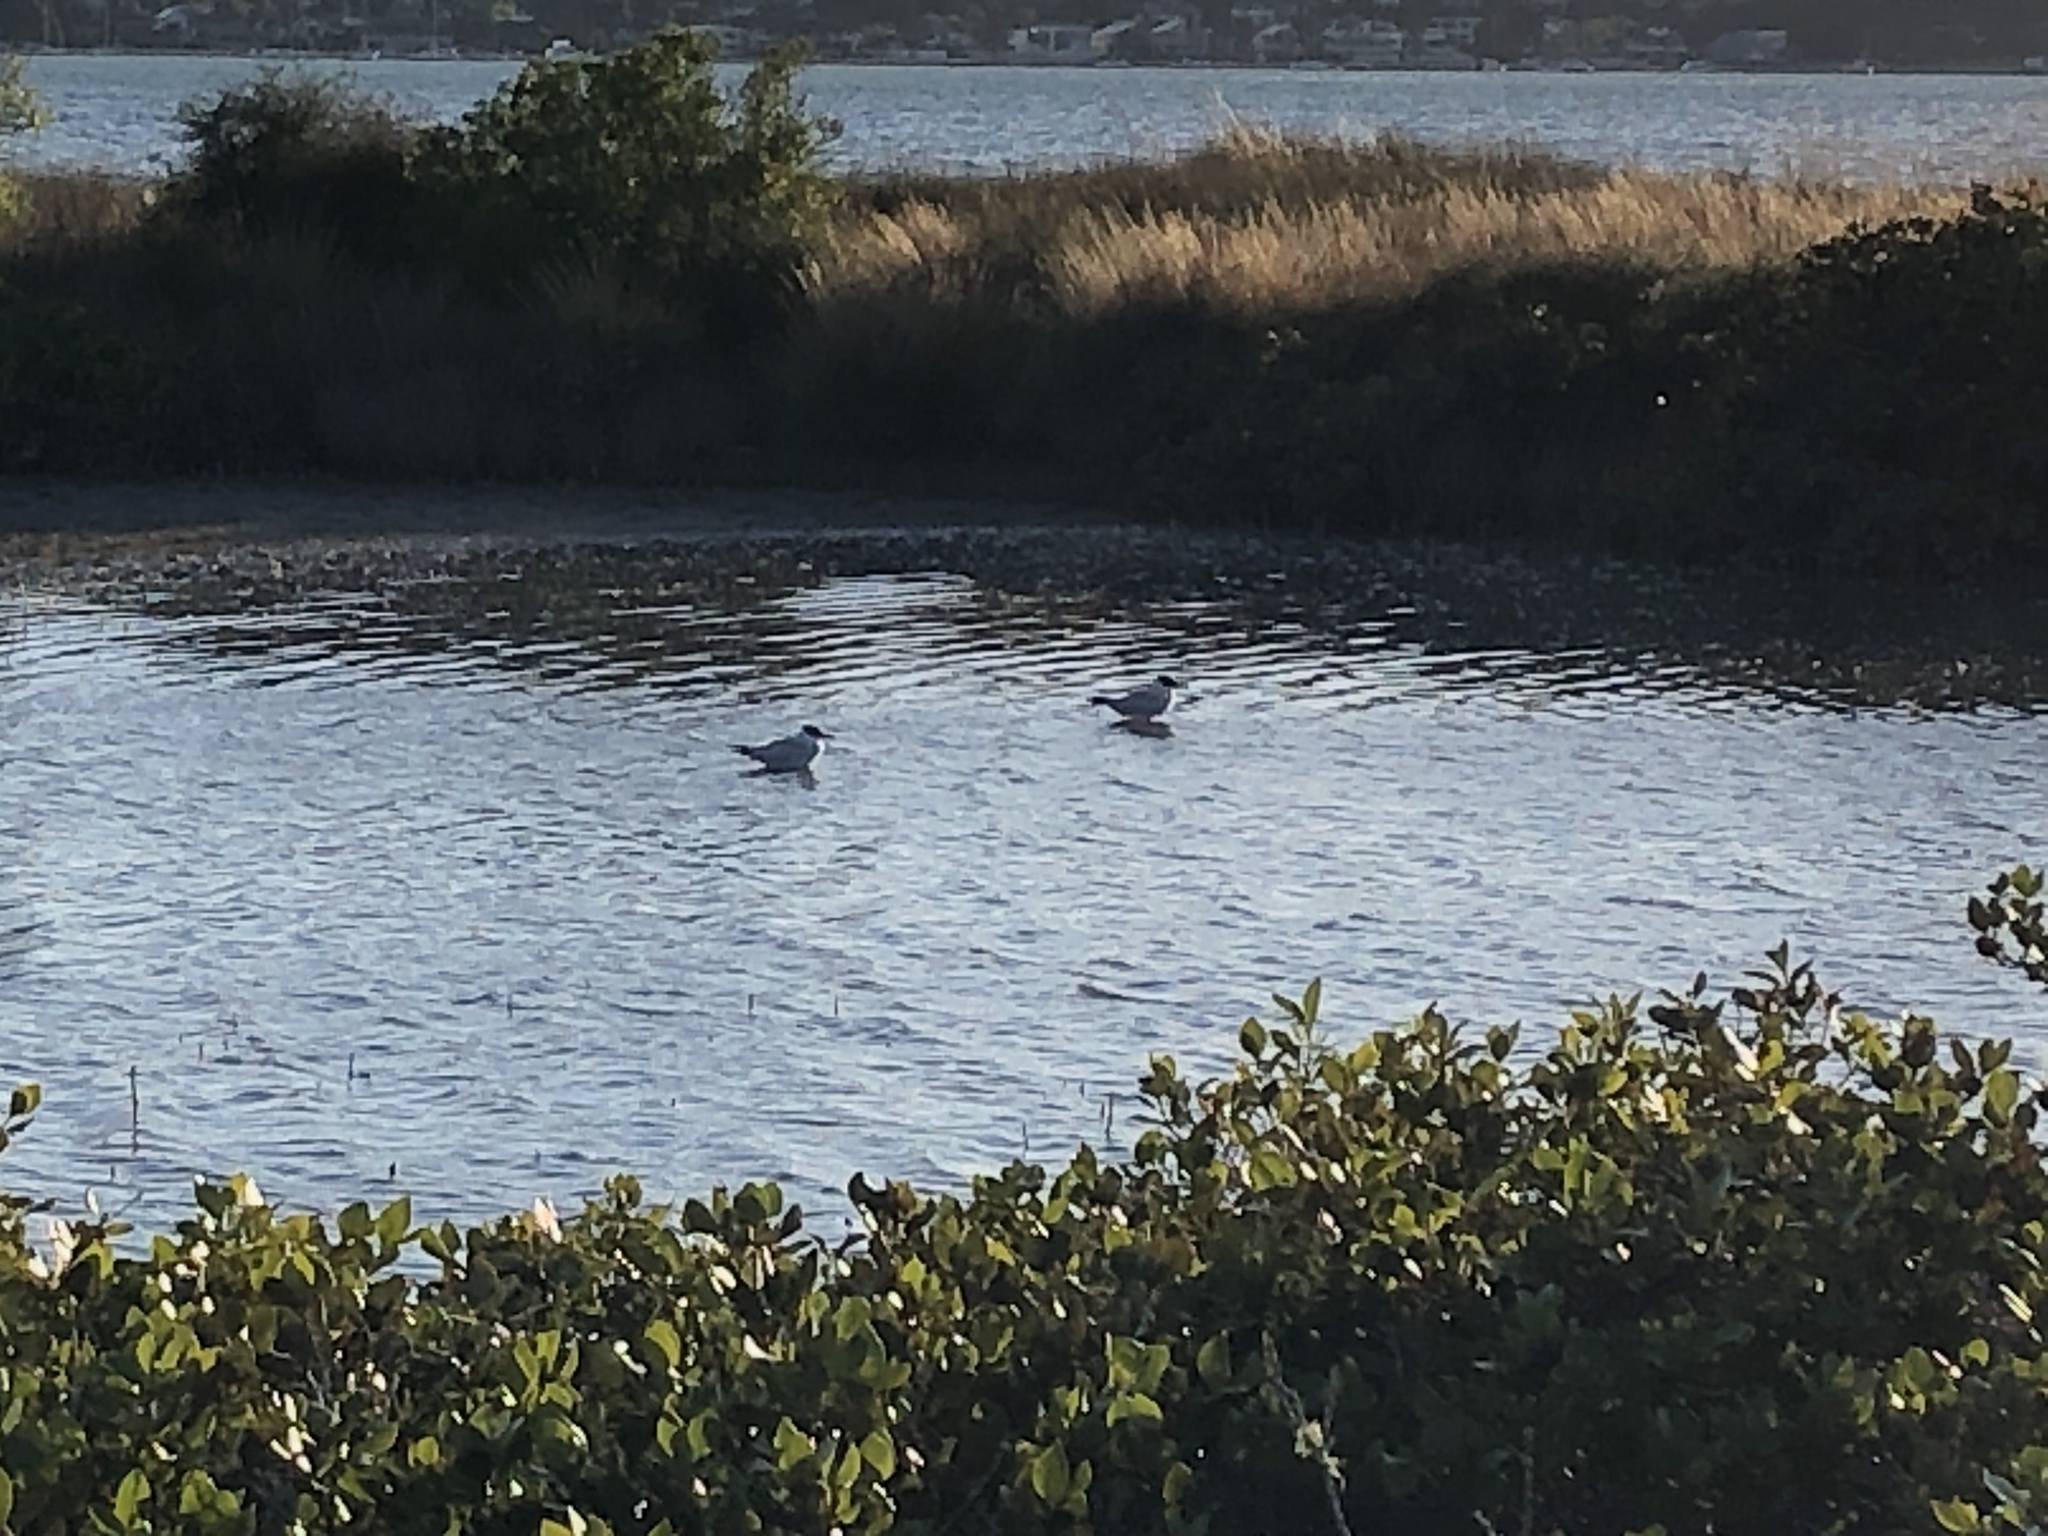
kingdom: Animalia
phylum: Chordata
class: Aves
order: Charadriiformes
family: Laridae
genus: Hydroprogne
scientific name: Hydroprogne caspia
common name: Caspian tern
